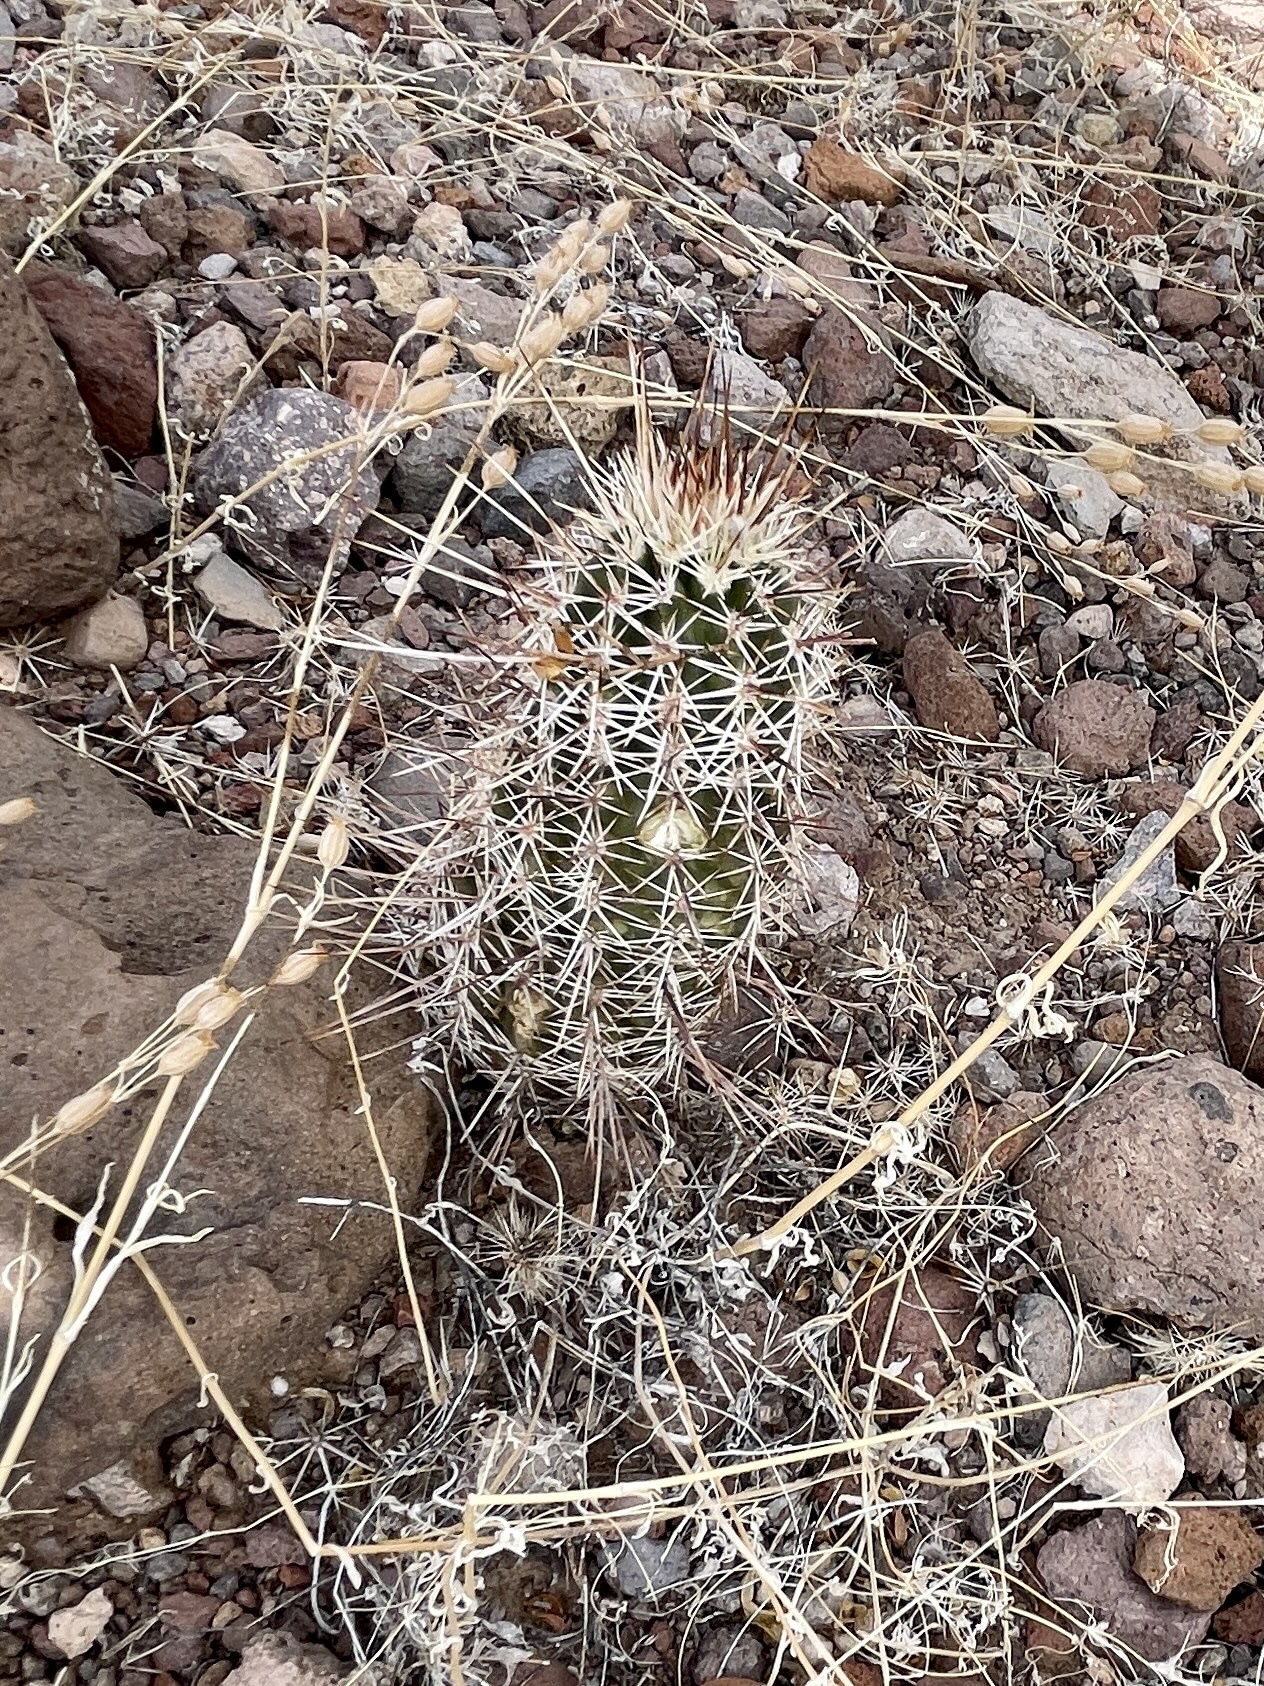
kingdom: Plantae
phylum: Tracheophyta
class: Magnoliopsida
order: Caryophyllales
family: Cactaceae
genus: Echinocereus
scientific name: Echinocereus fasciculatus
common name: Bundle hedgehog
